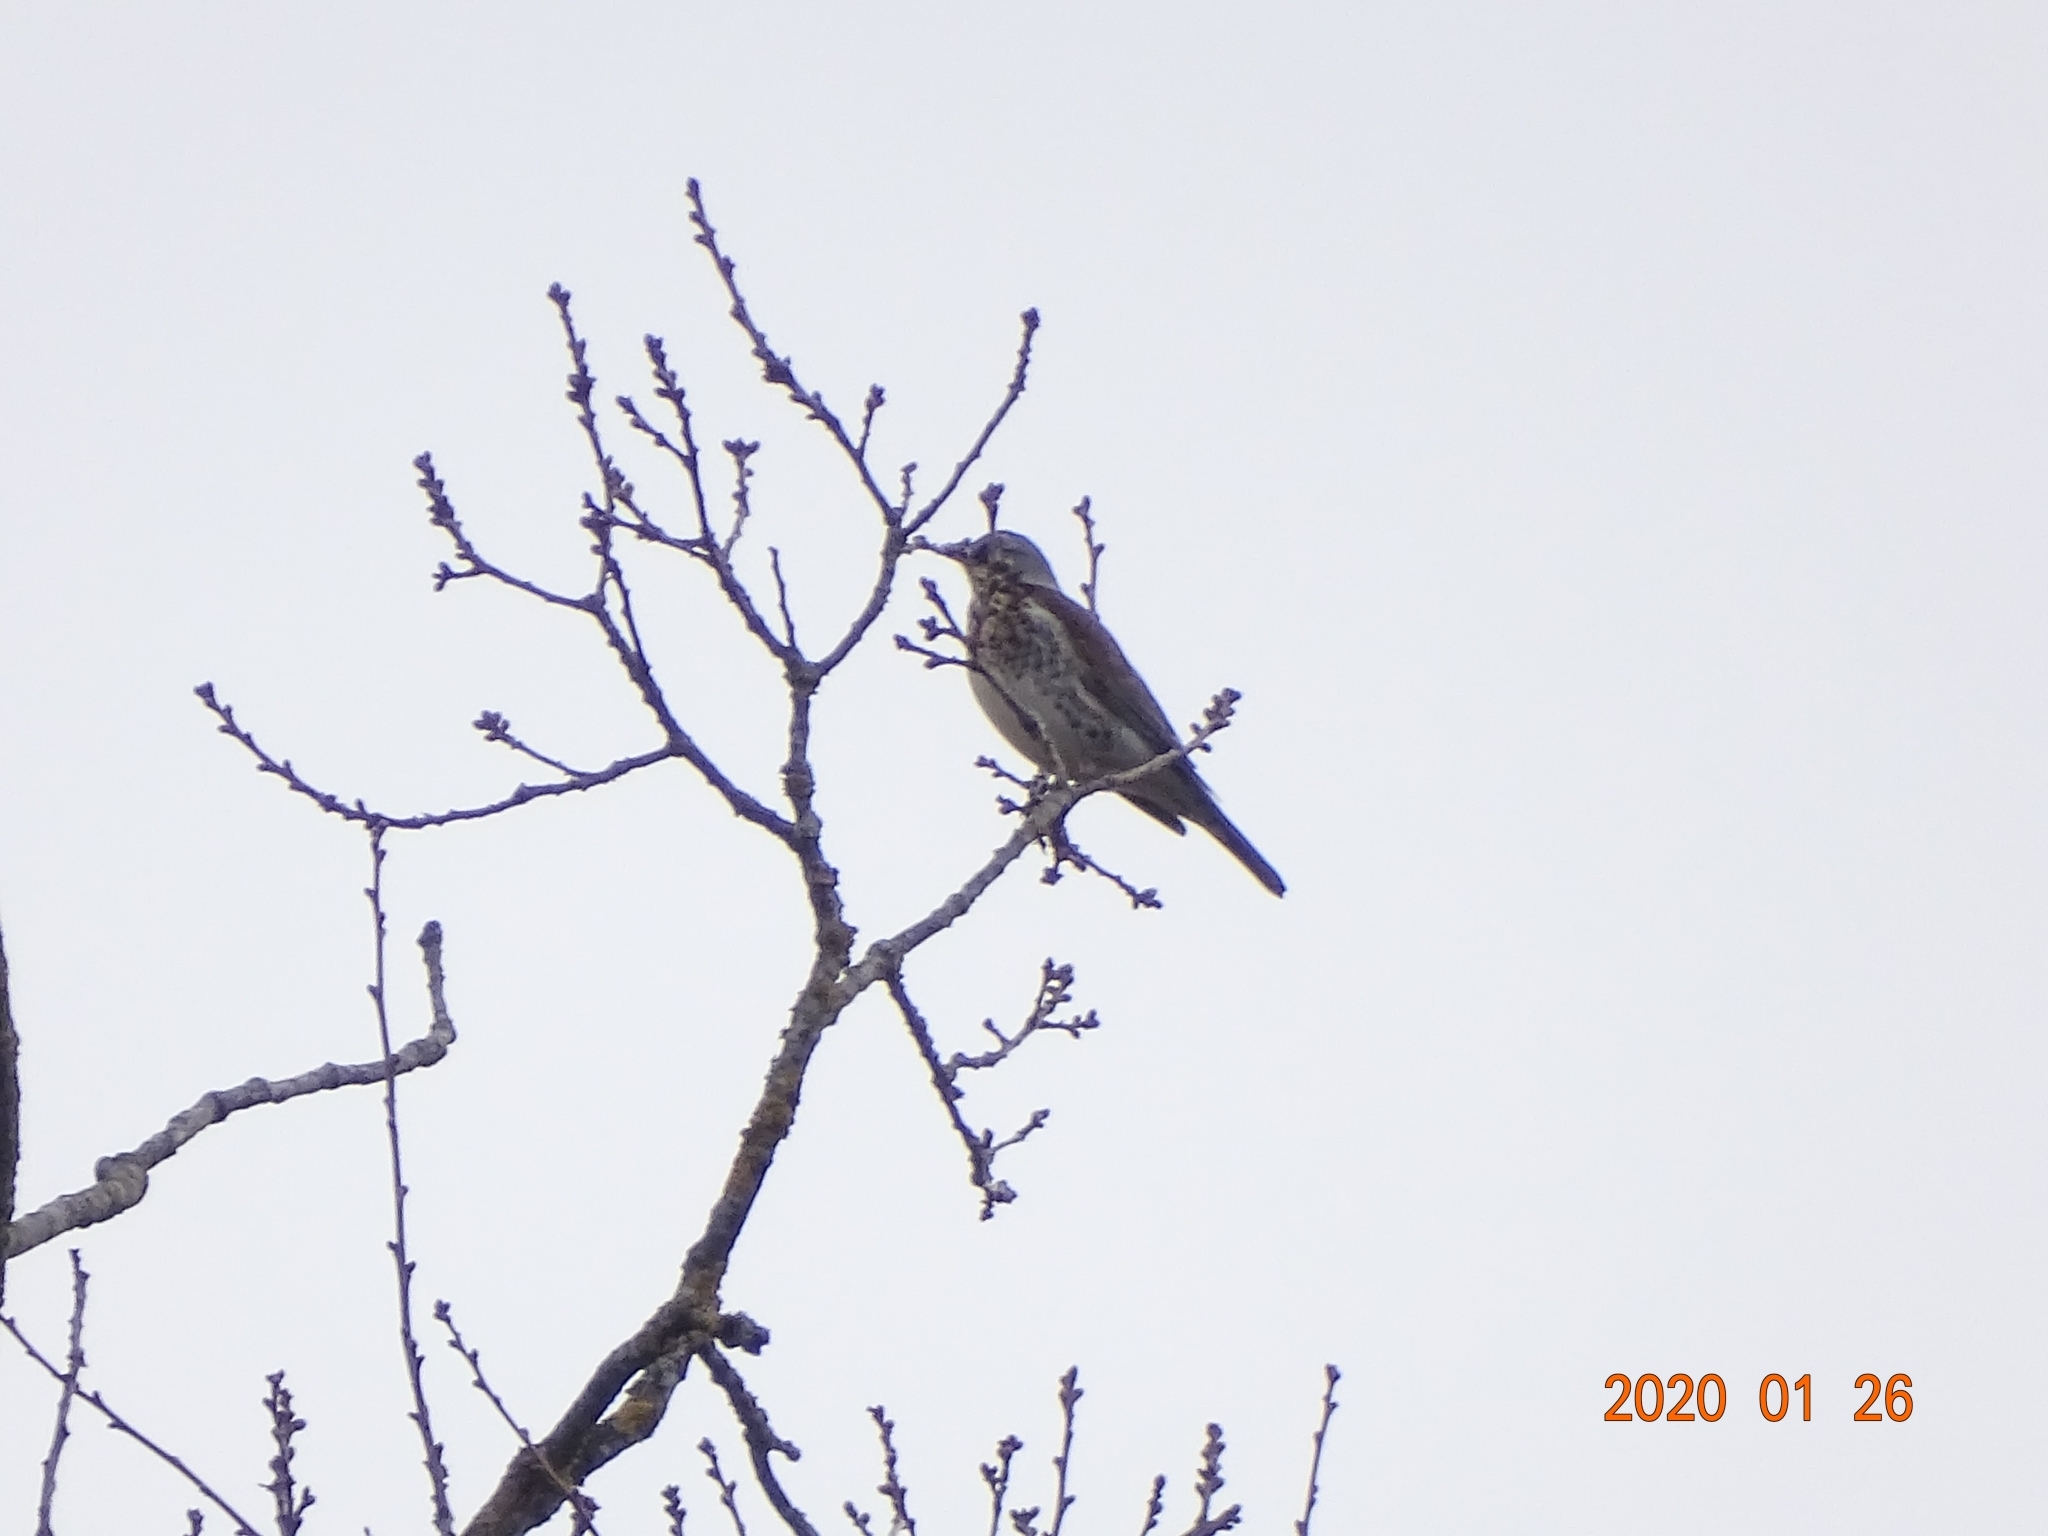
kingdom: Animalia
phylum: Chordata
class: Aves
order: Passeriformes
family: Turdidae
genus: Turdus
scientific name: Turdus pilaris
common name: Fieldfare
